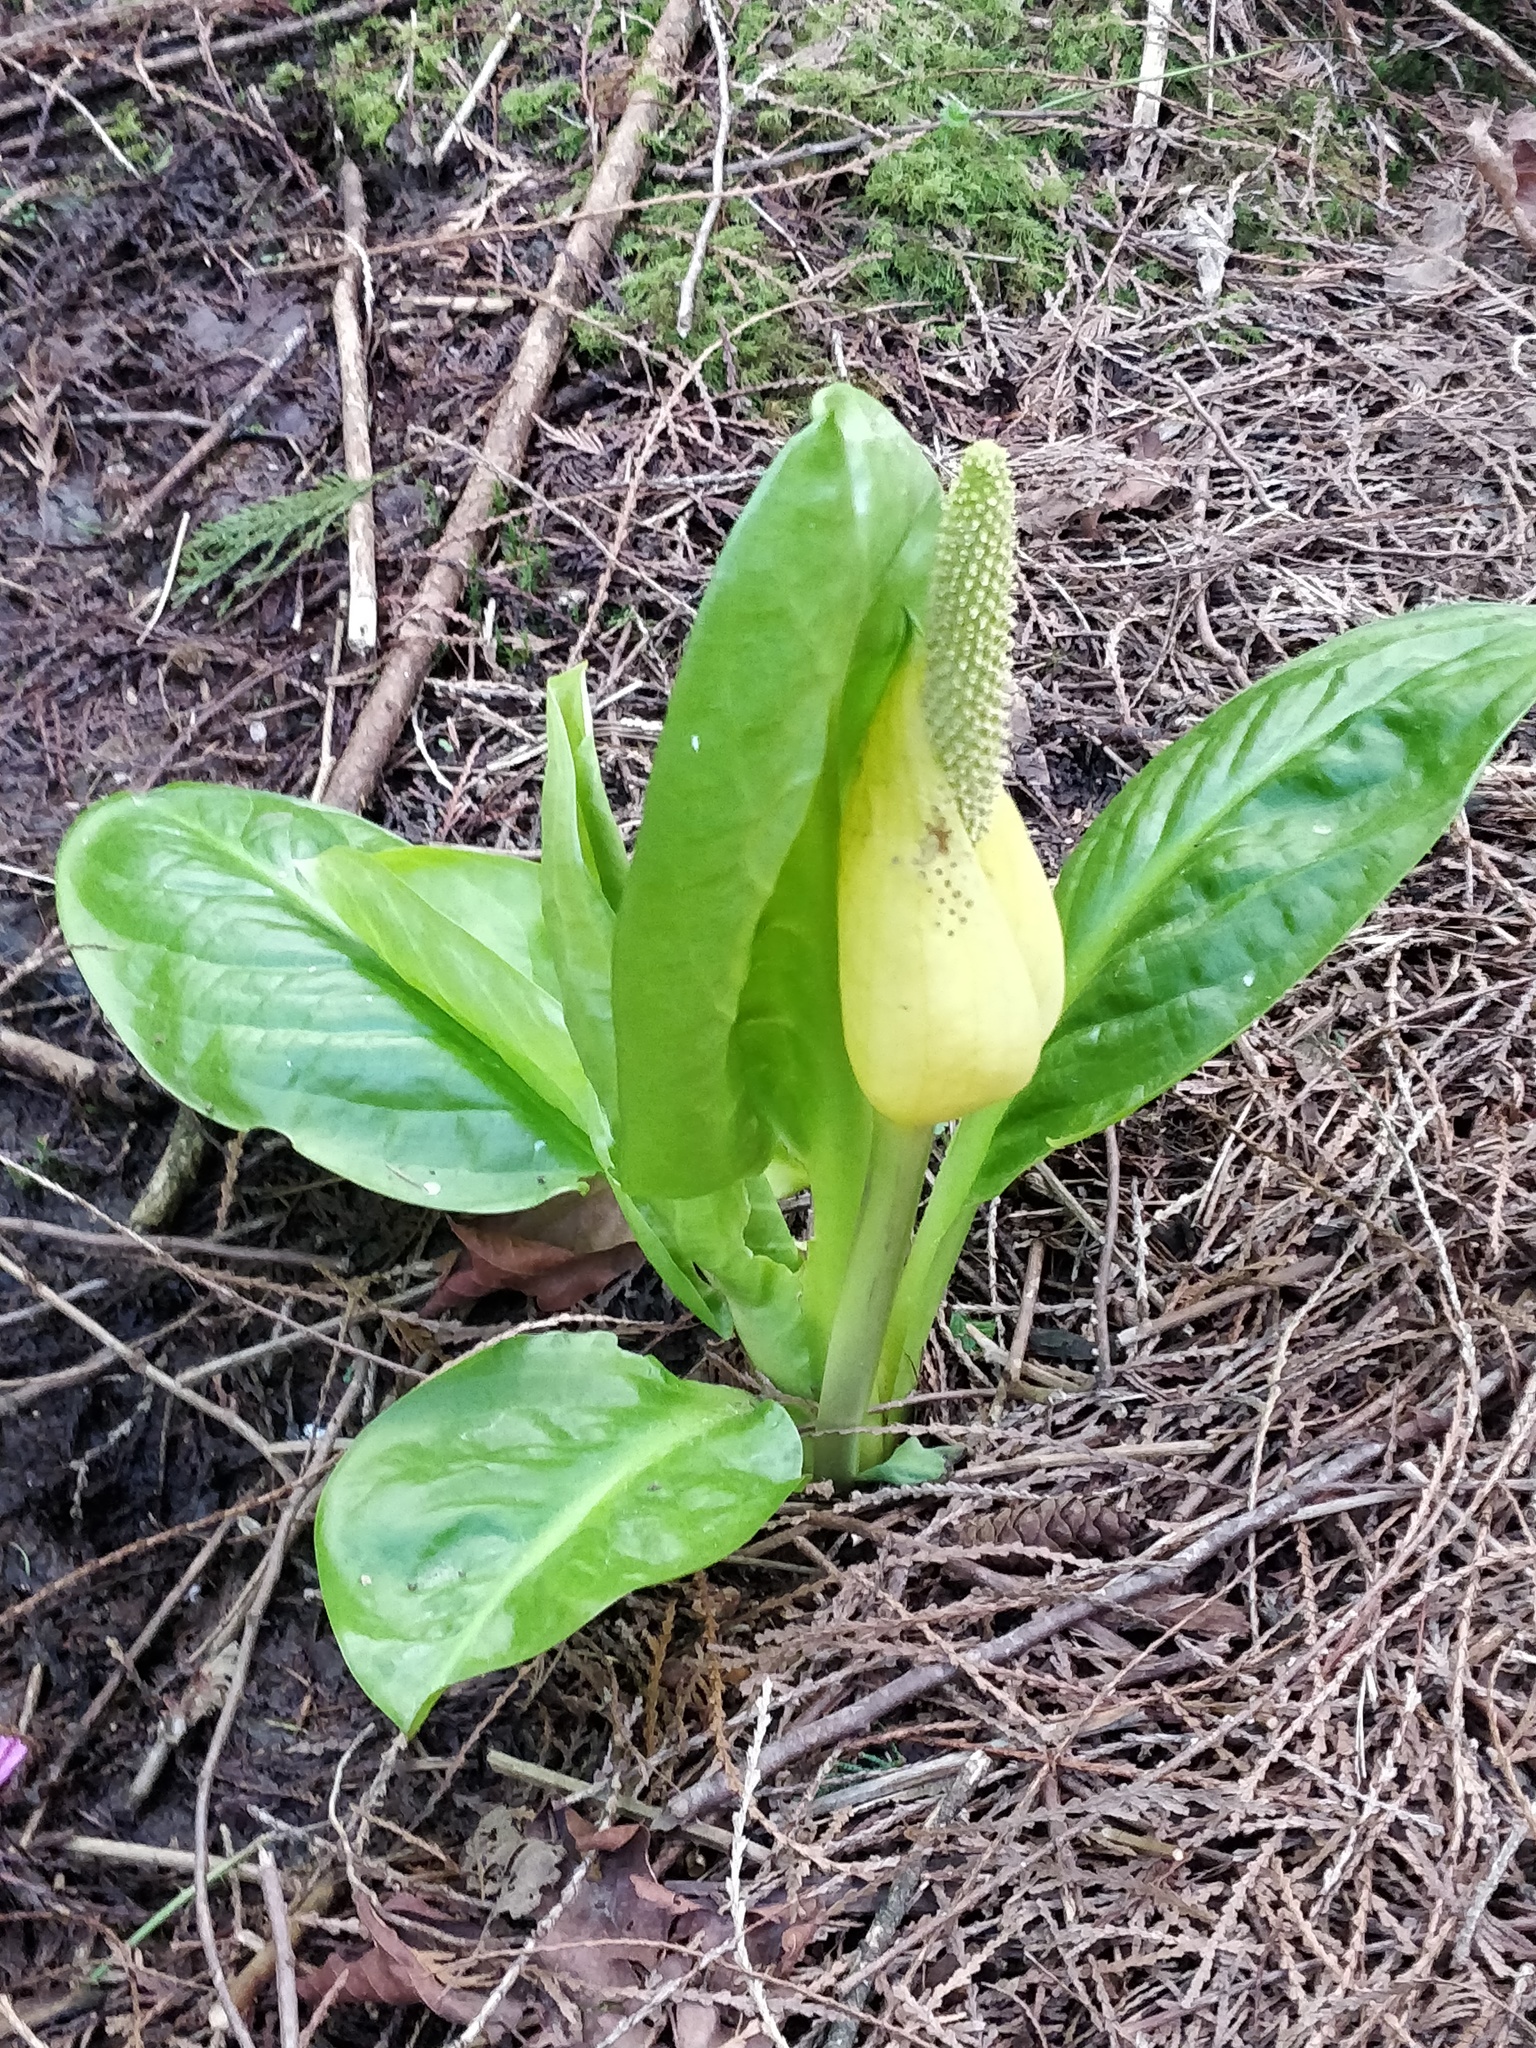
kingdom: Plantae
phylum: Tracheophyta
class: Liliopsida
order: Alismatales
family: Araceae
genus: Lysichiton
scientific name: Lysichiton americanus
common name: American skunk cabbage
